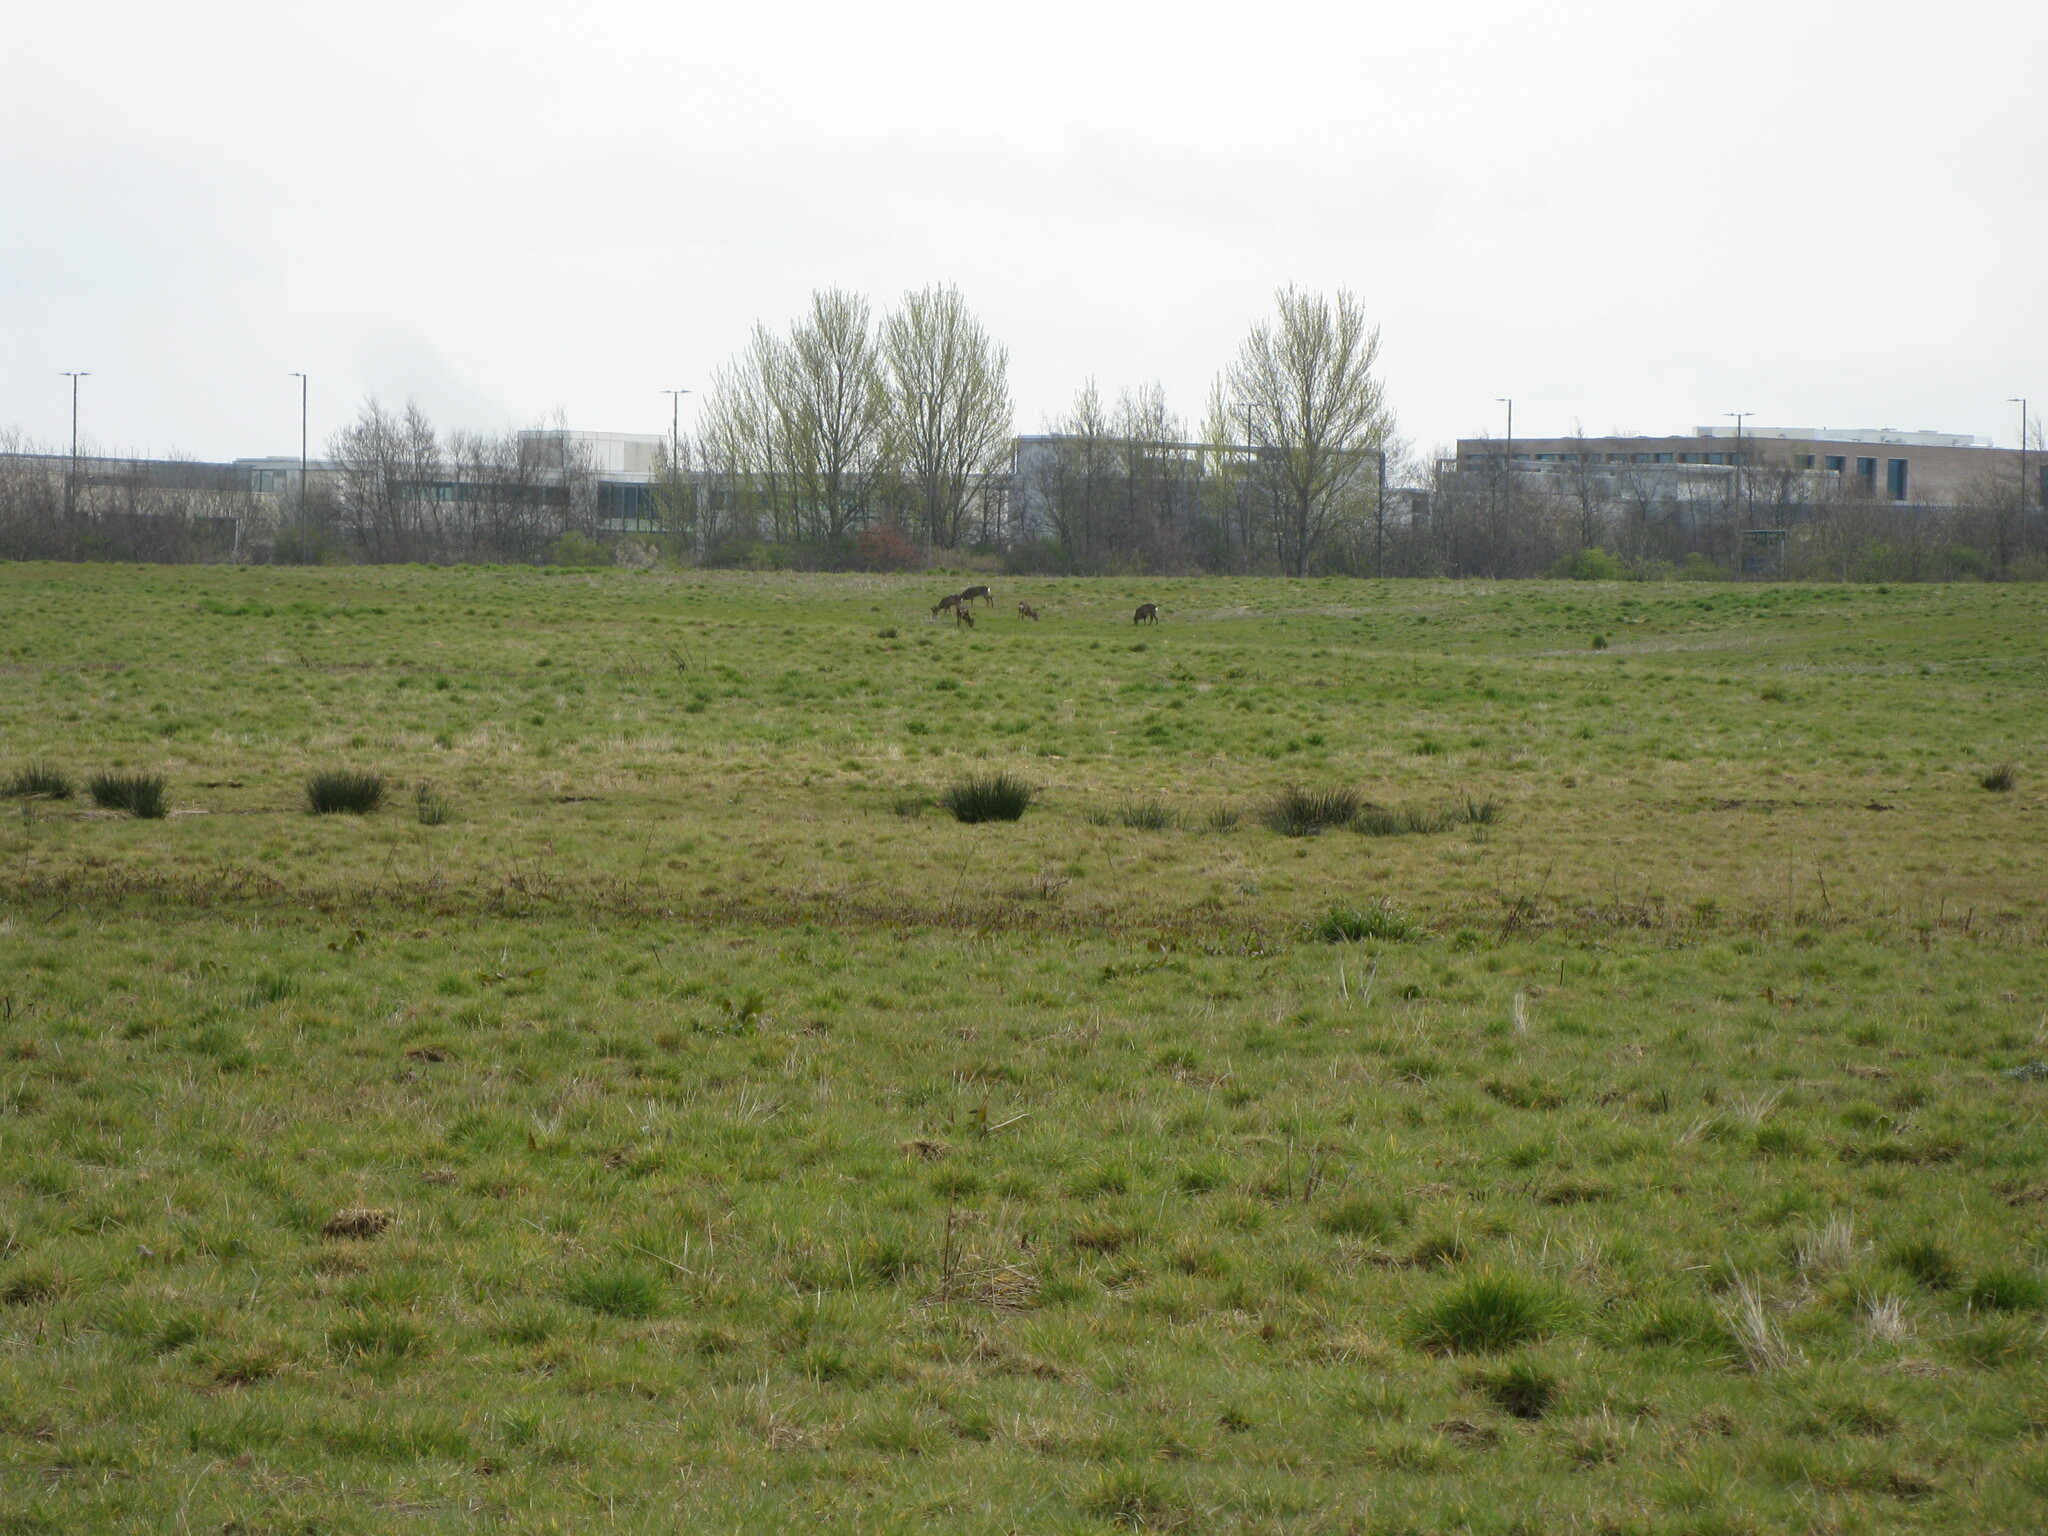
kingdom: Animalia
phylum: Chordata
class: Mammalia
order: Artiodactyla
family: Cervidae
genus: Capreolus
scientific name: Capreolus capreolus
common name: Western roe deer
